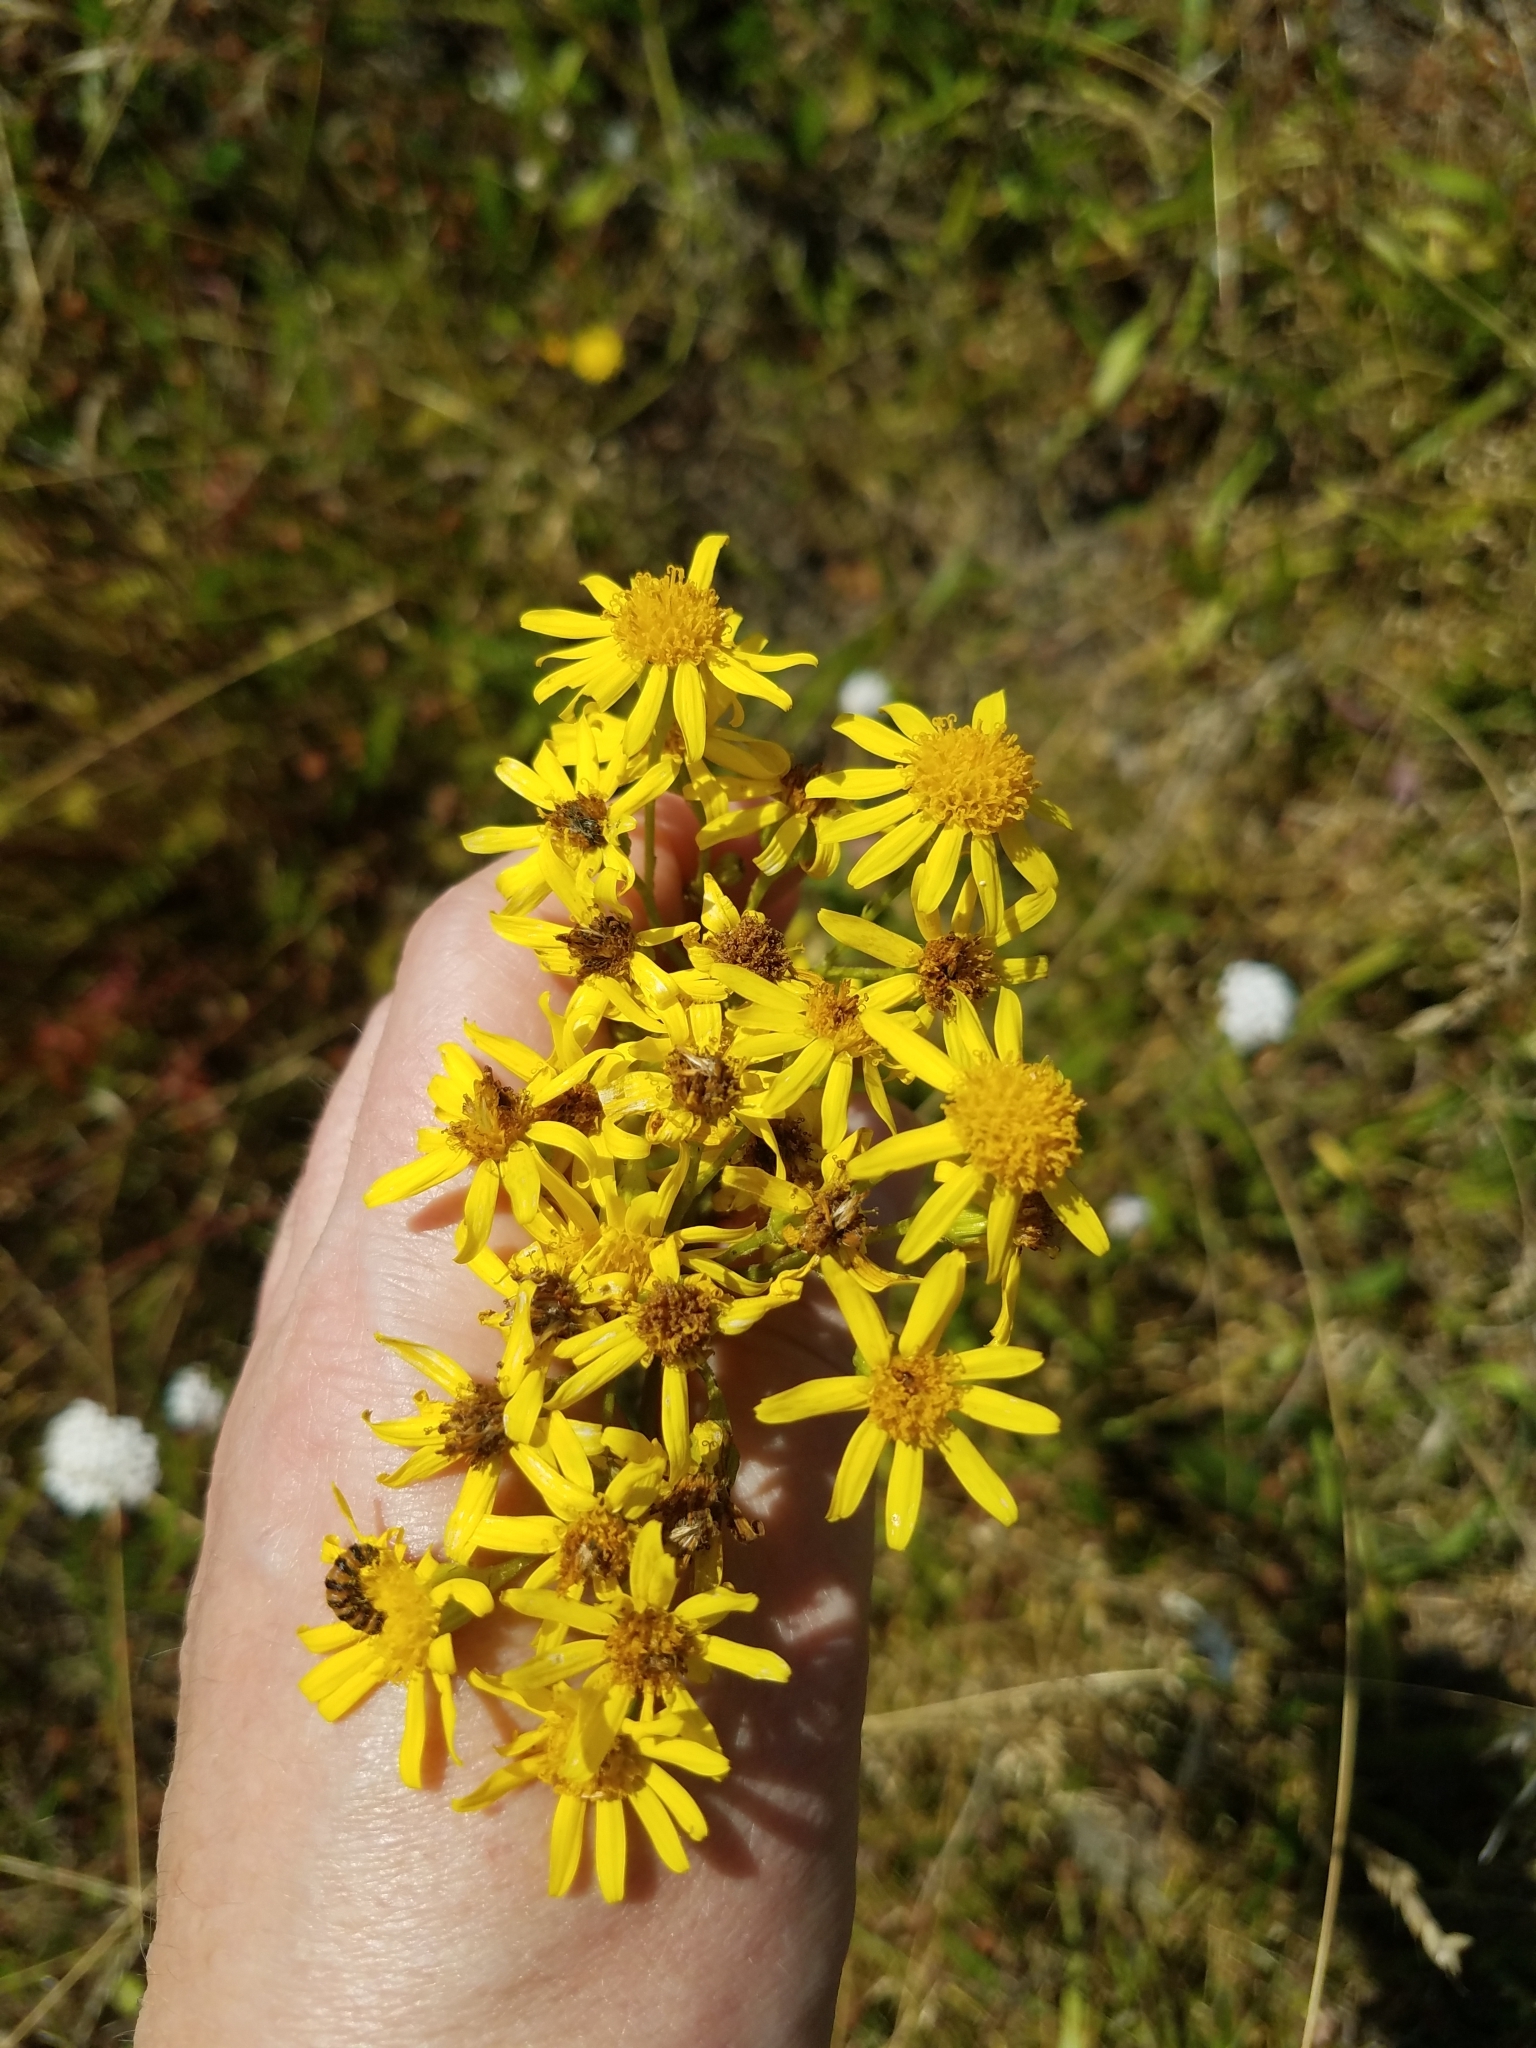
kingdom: Plantae
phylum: Tracheophyta
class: Magnoliopsida
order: Asterales
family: Asteraceae
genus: Jacobaea
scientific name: Jacobaea vulgaris
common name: Stinking willie
